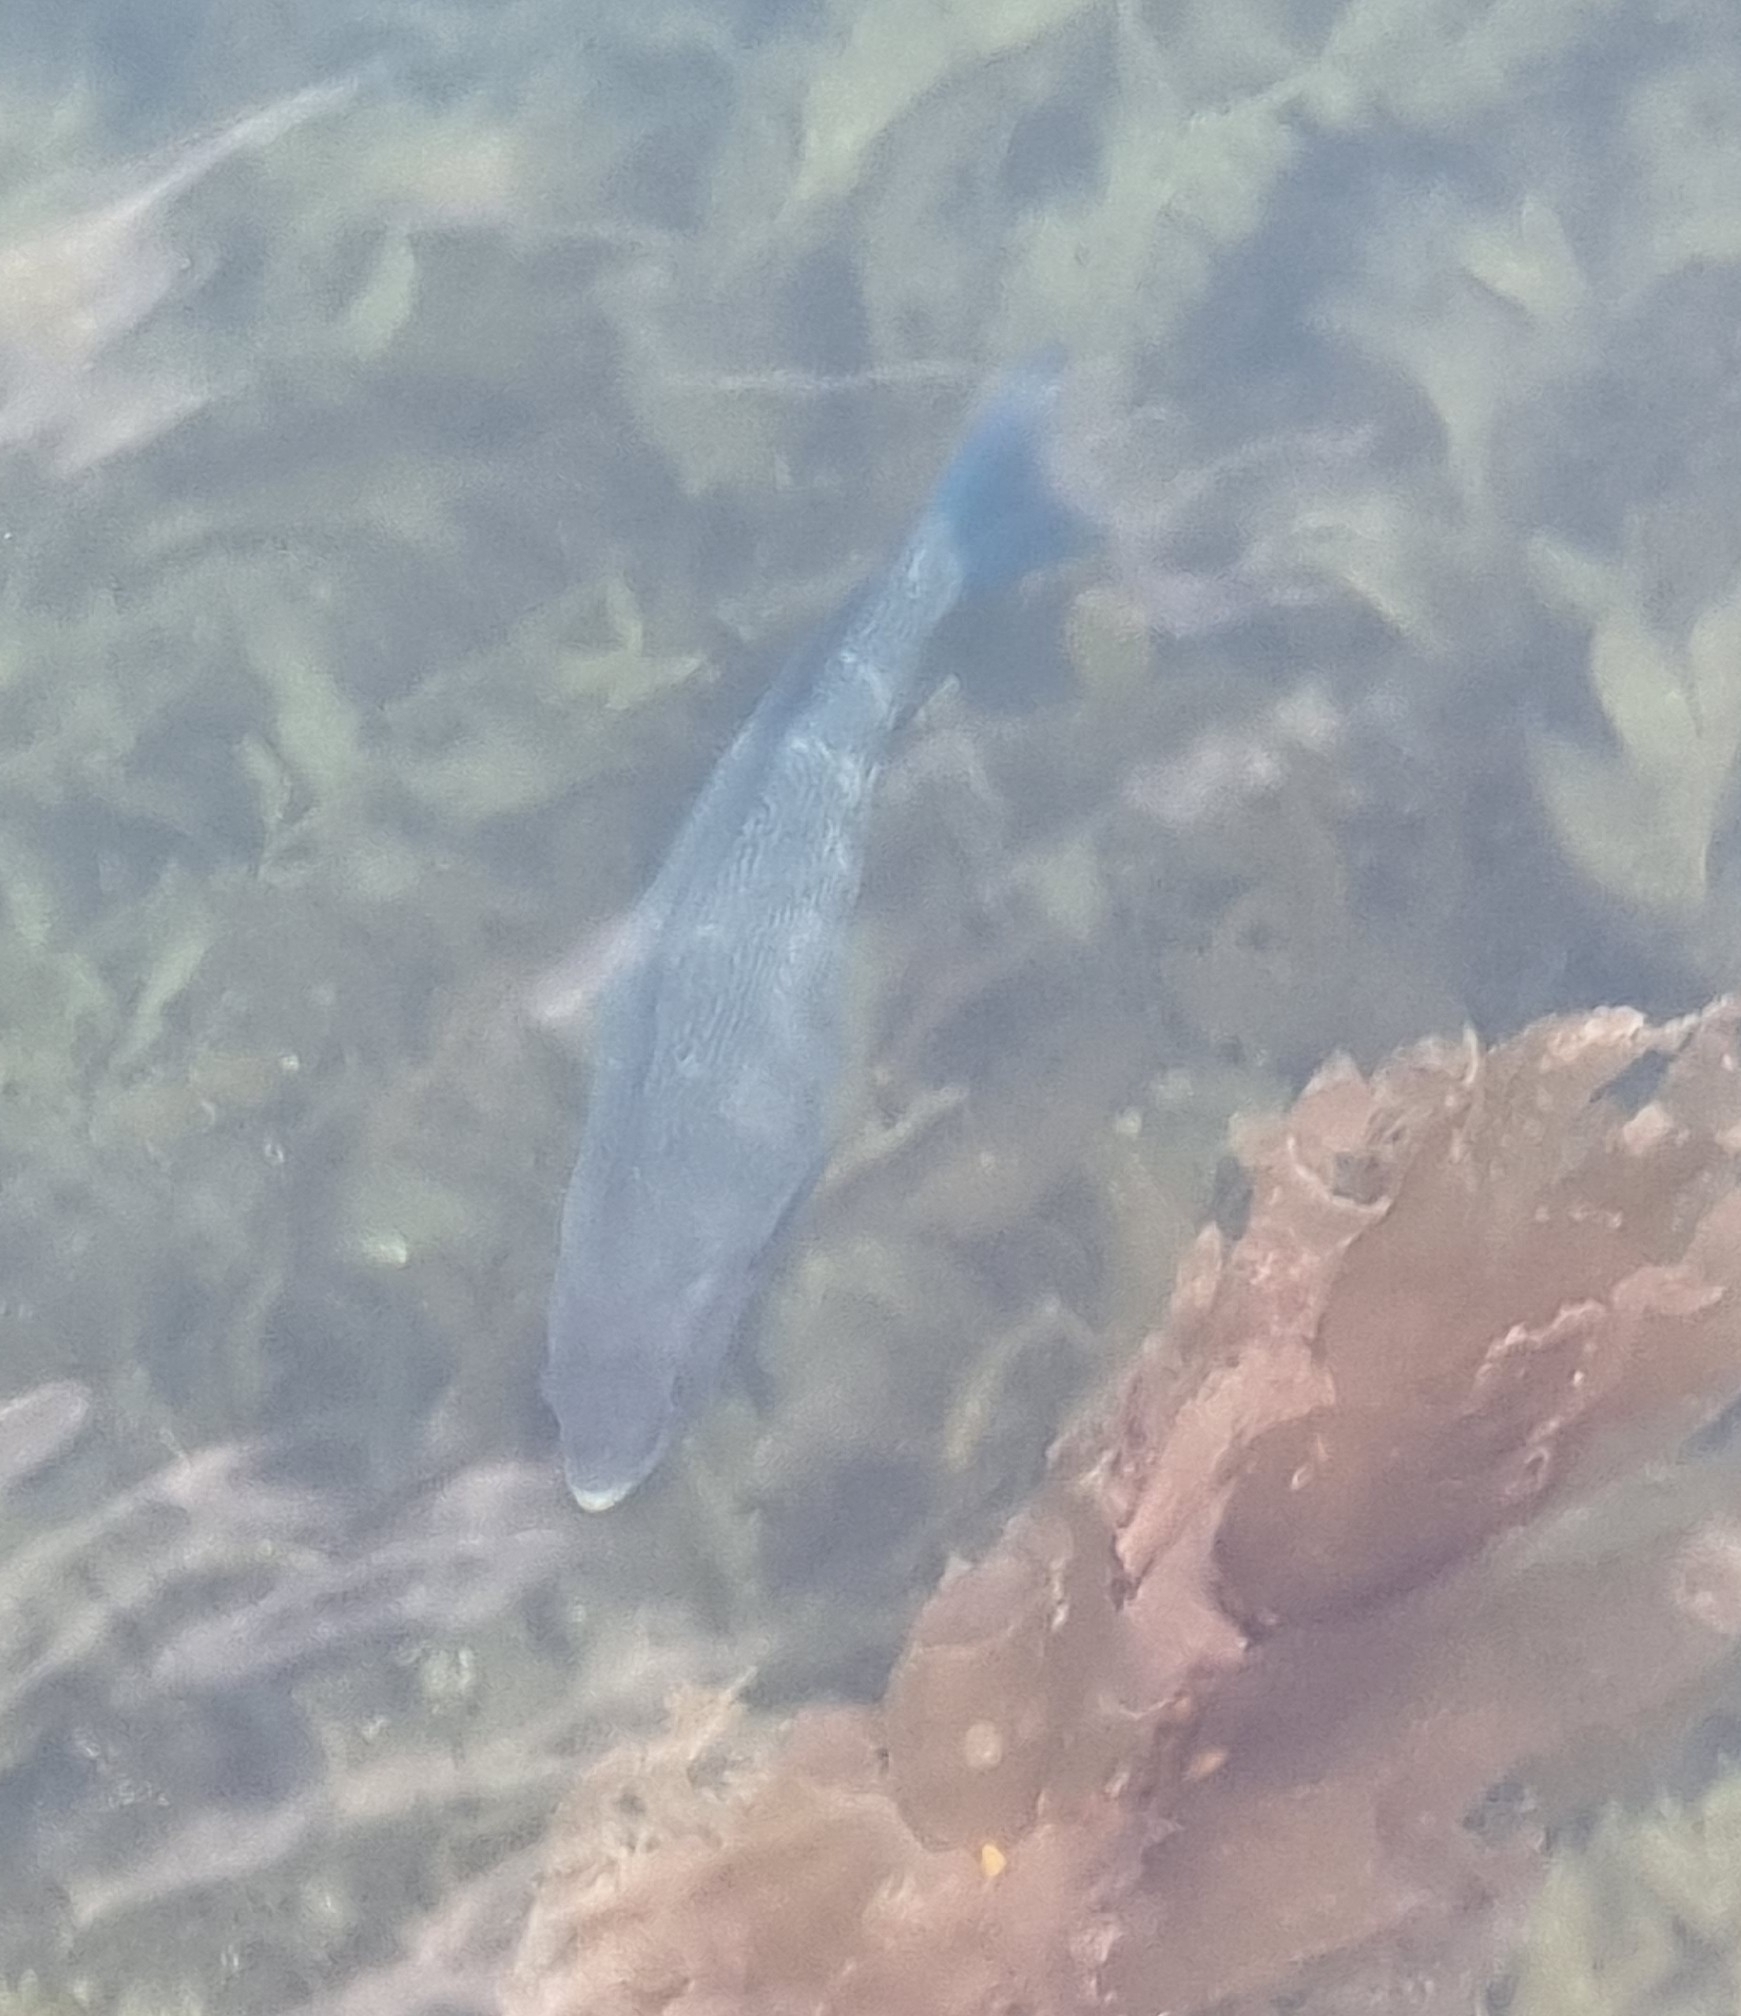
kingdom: Animalia
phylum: Chordata
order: Perciformes
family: Odacidae
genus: Odax
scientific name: Odax pullus
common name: Butterfish
